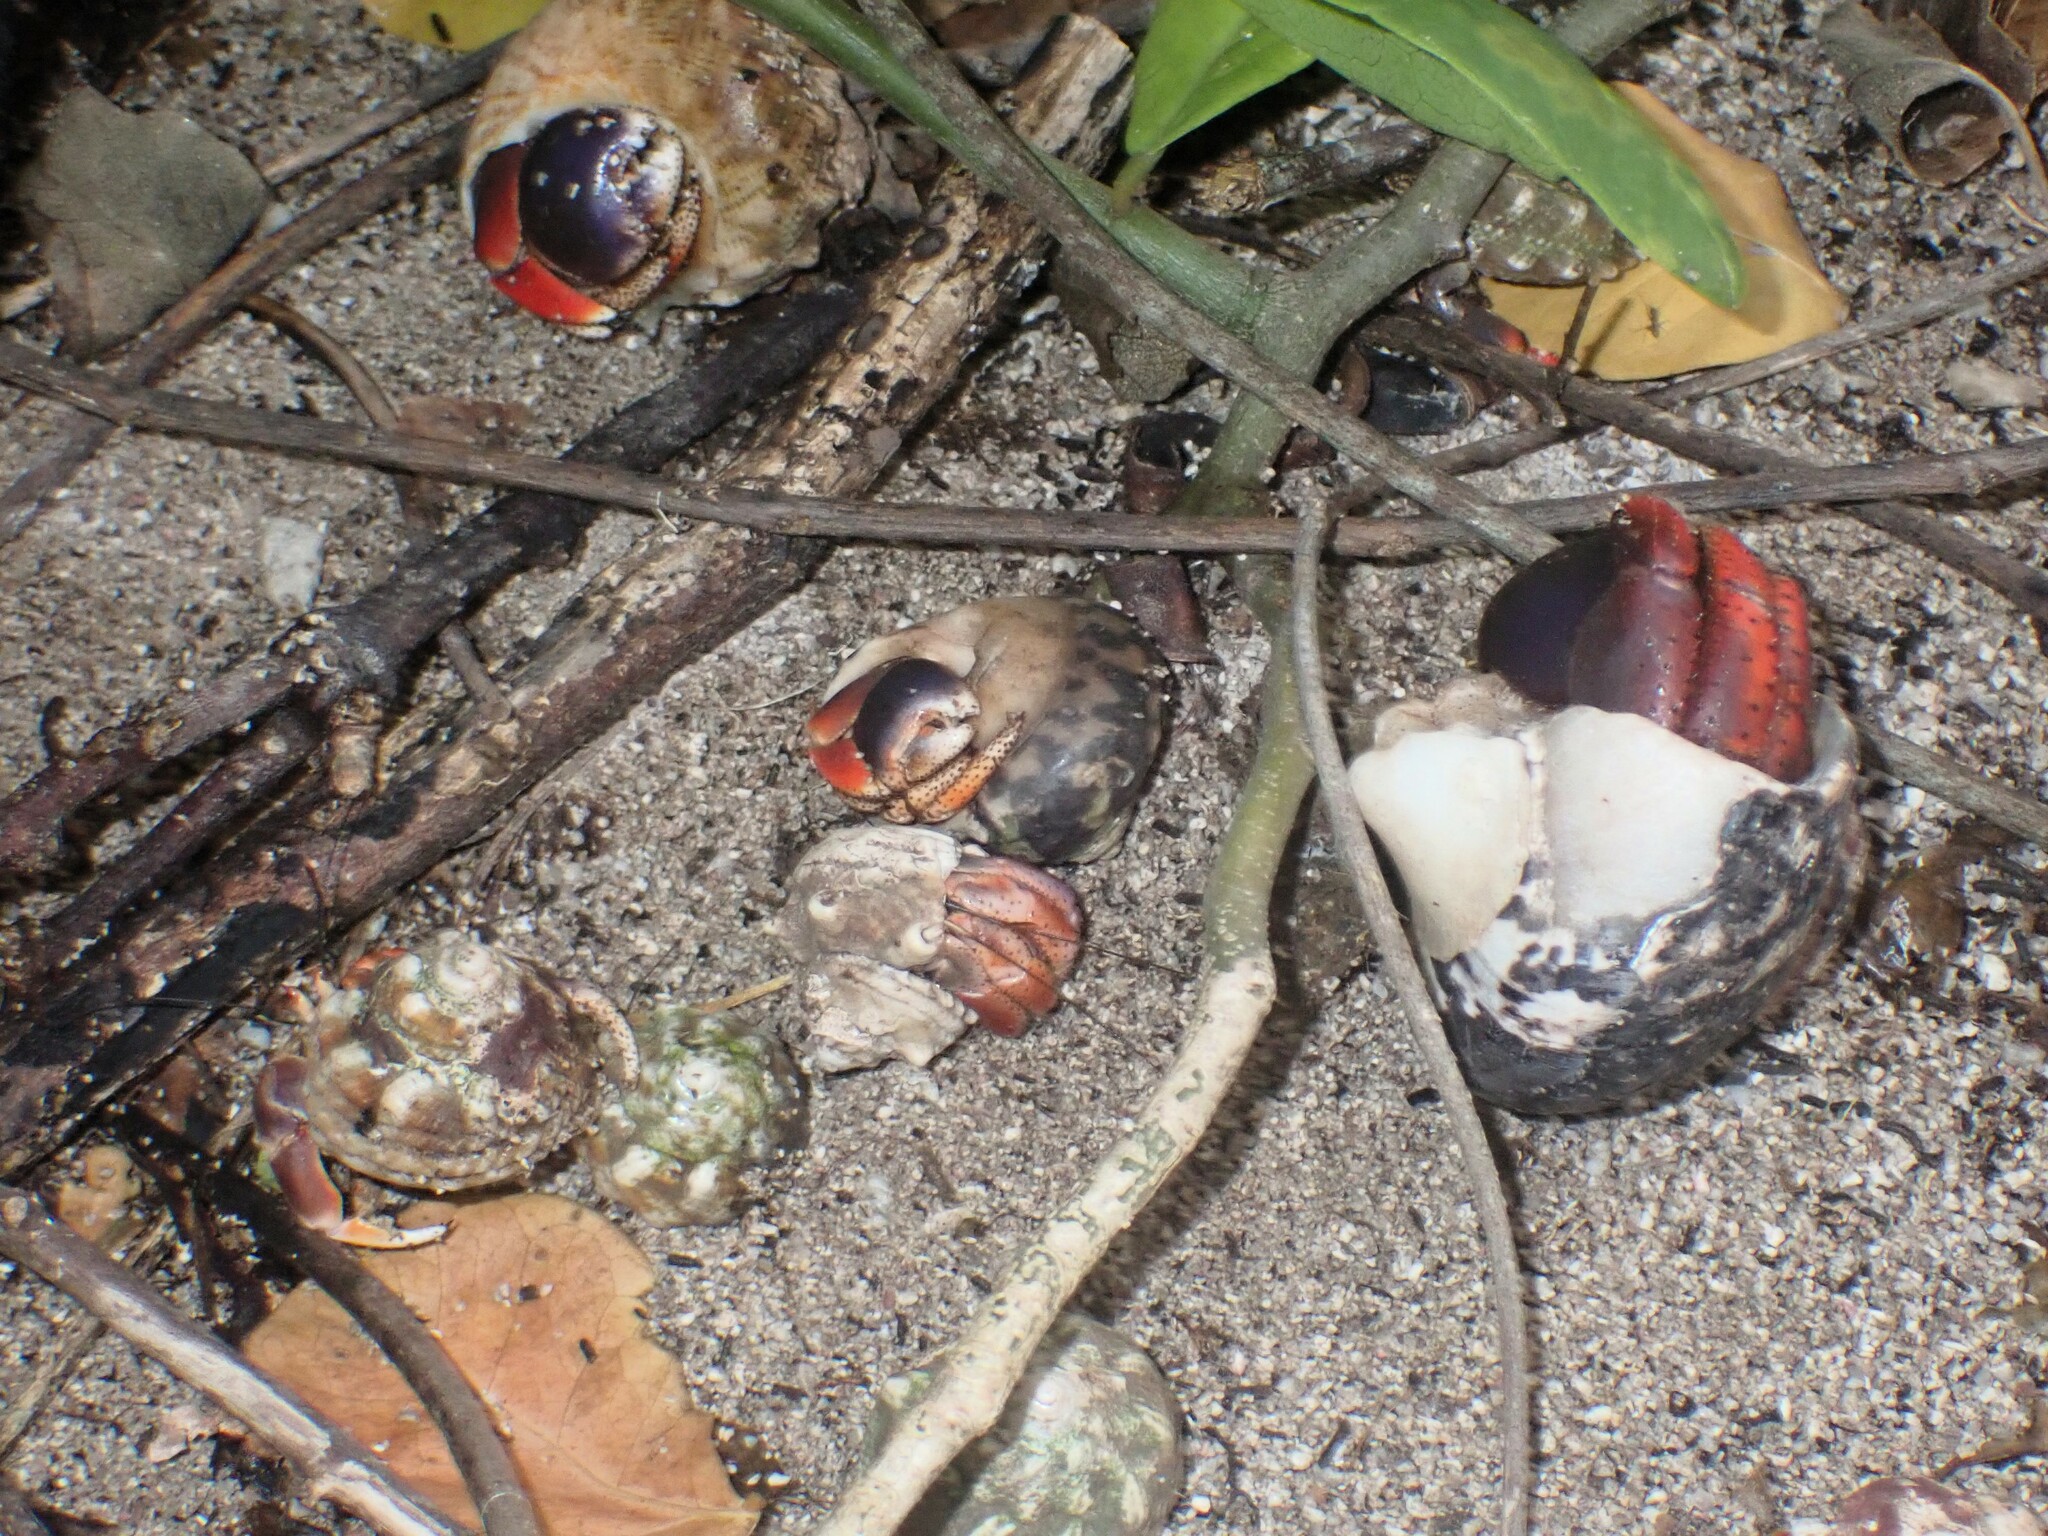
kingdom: Animalia
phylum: Arthropoda
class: Malacostraca
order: Decapoda
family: Coenobitidae
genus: Coenobita
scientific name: Coenobita clypeatus
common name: Caribbean hermit crab
